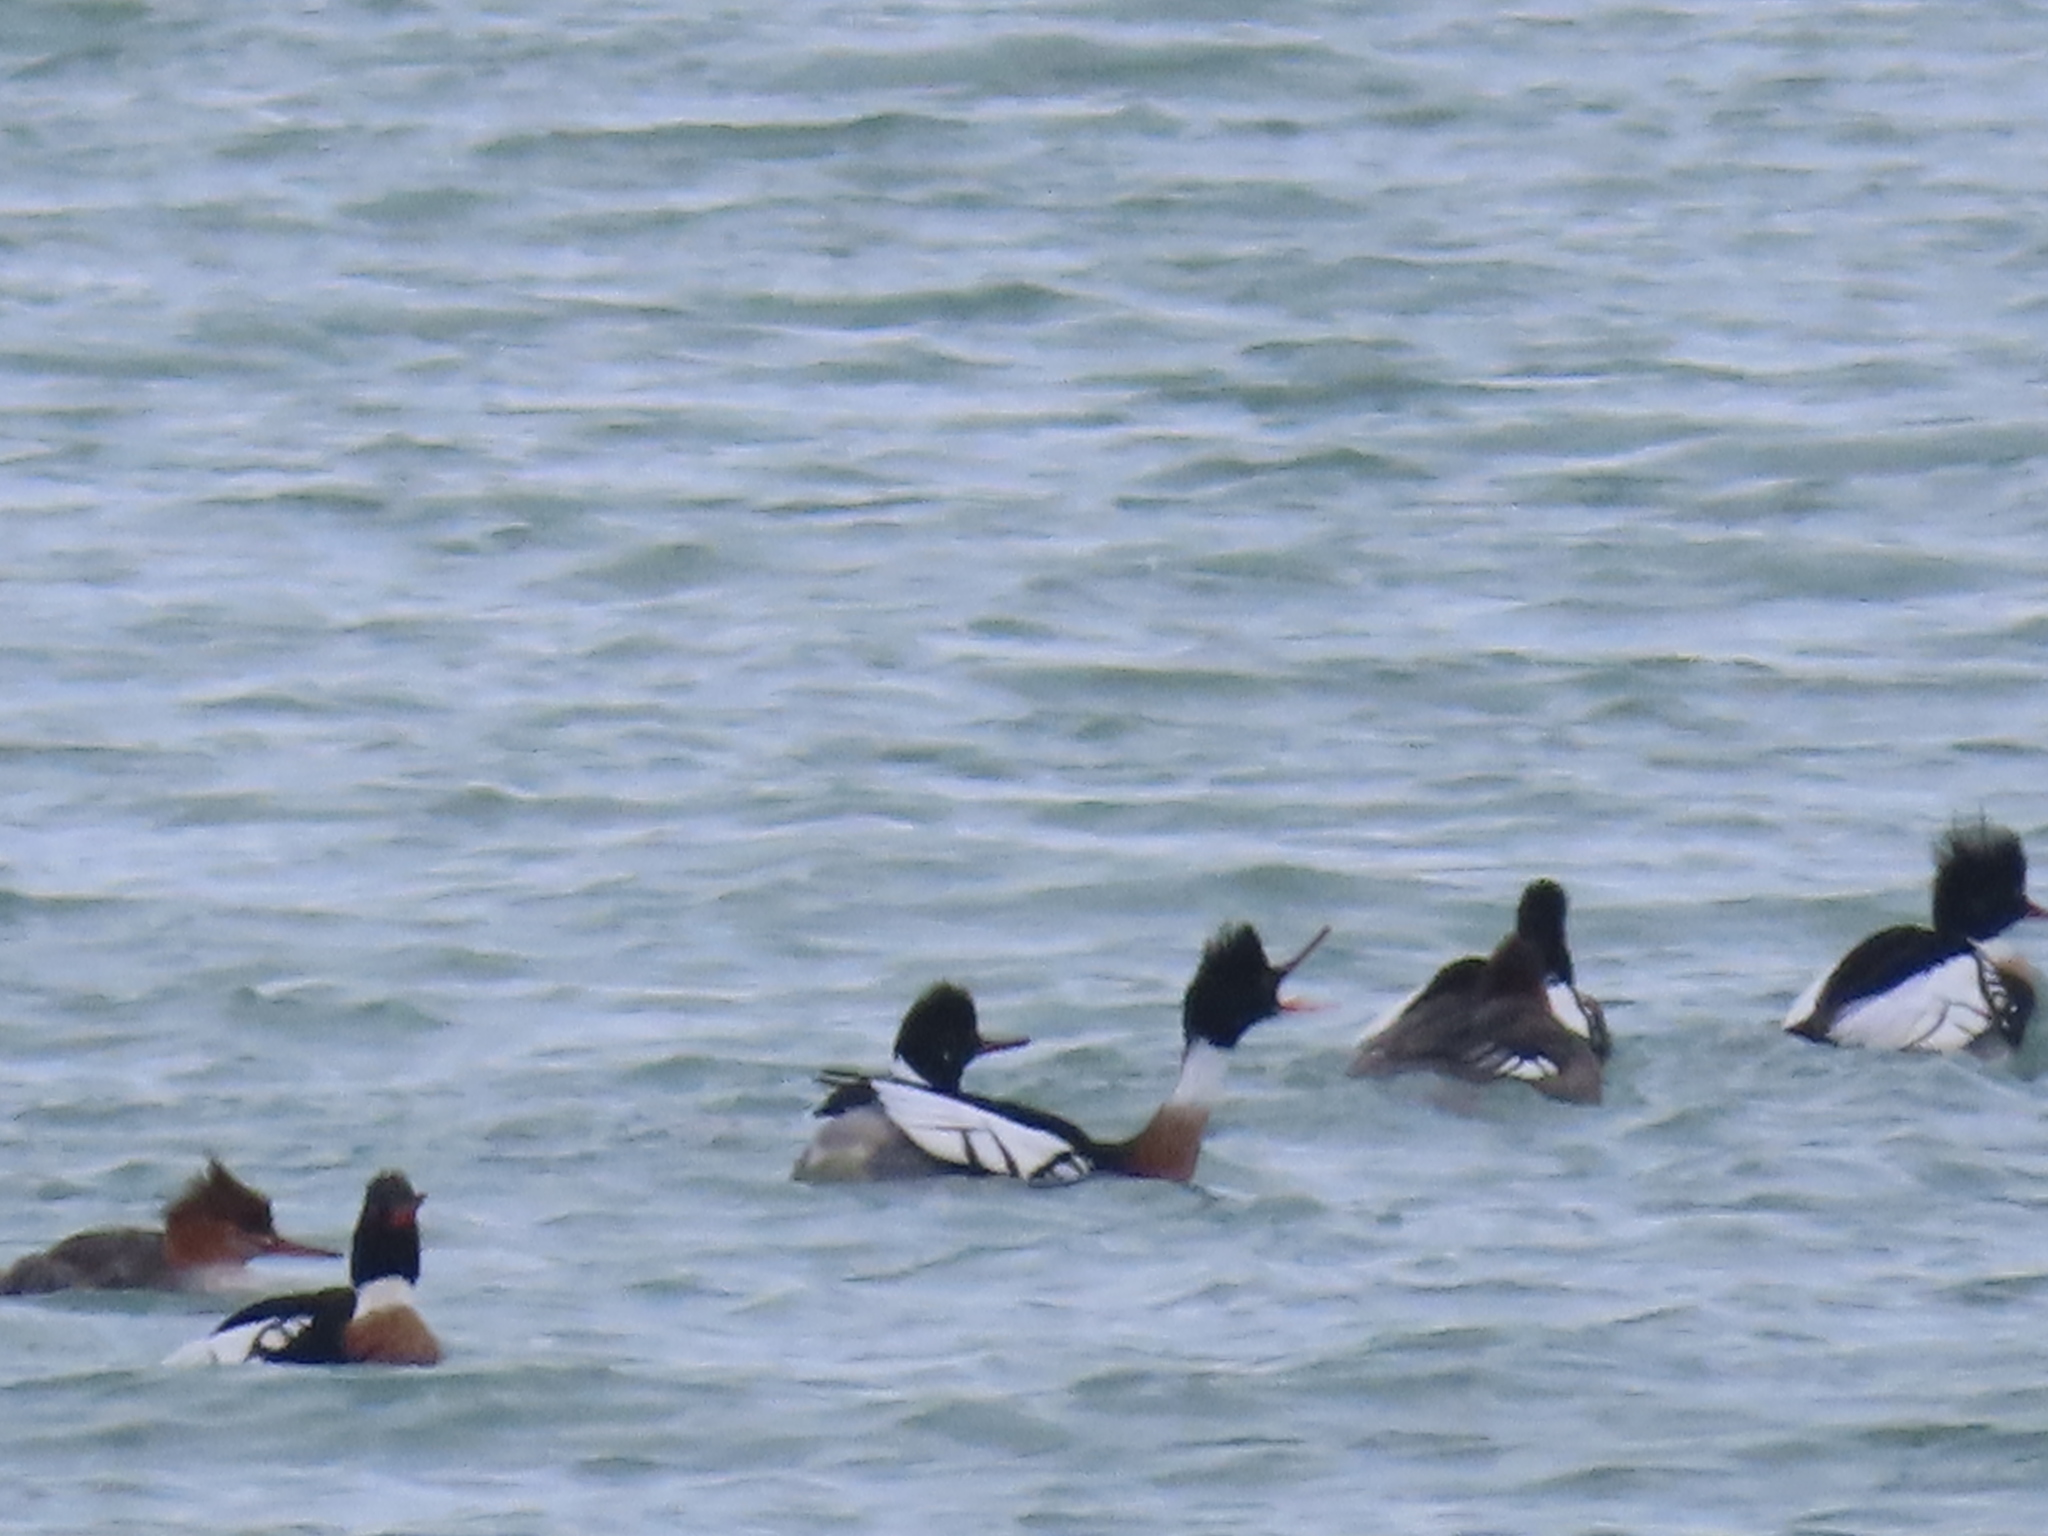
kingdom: Animalia
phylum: Chordata
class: Aves
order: Anseriformes
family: Anatidae
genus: Mergus
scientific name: Mergus serrator
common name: Red-breasted merganser
